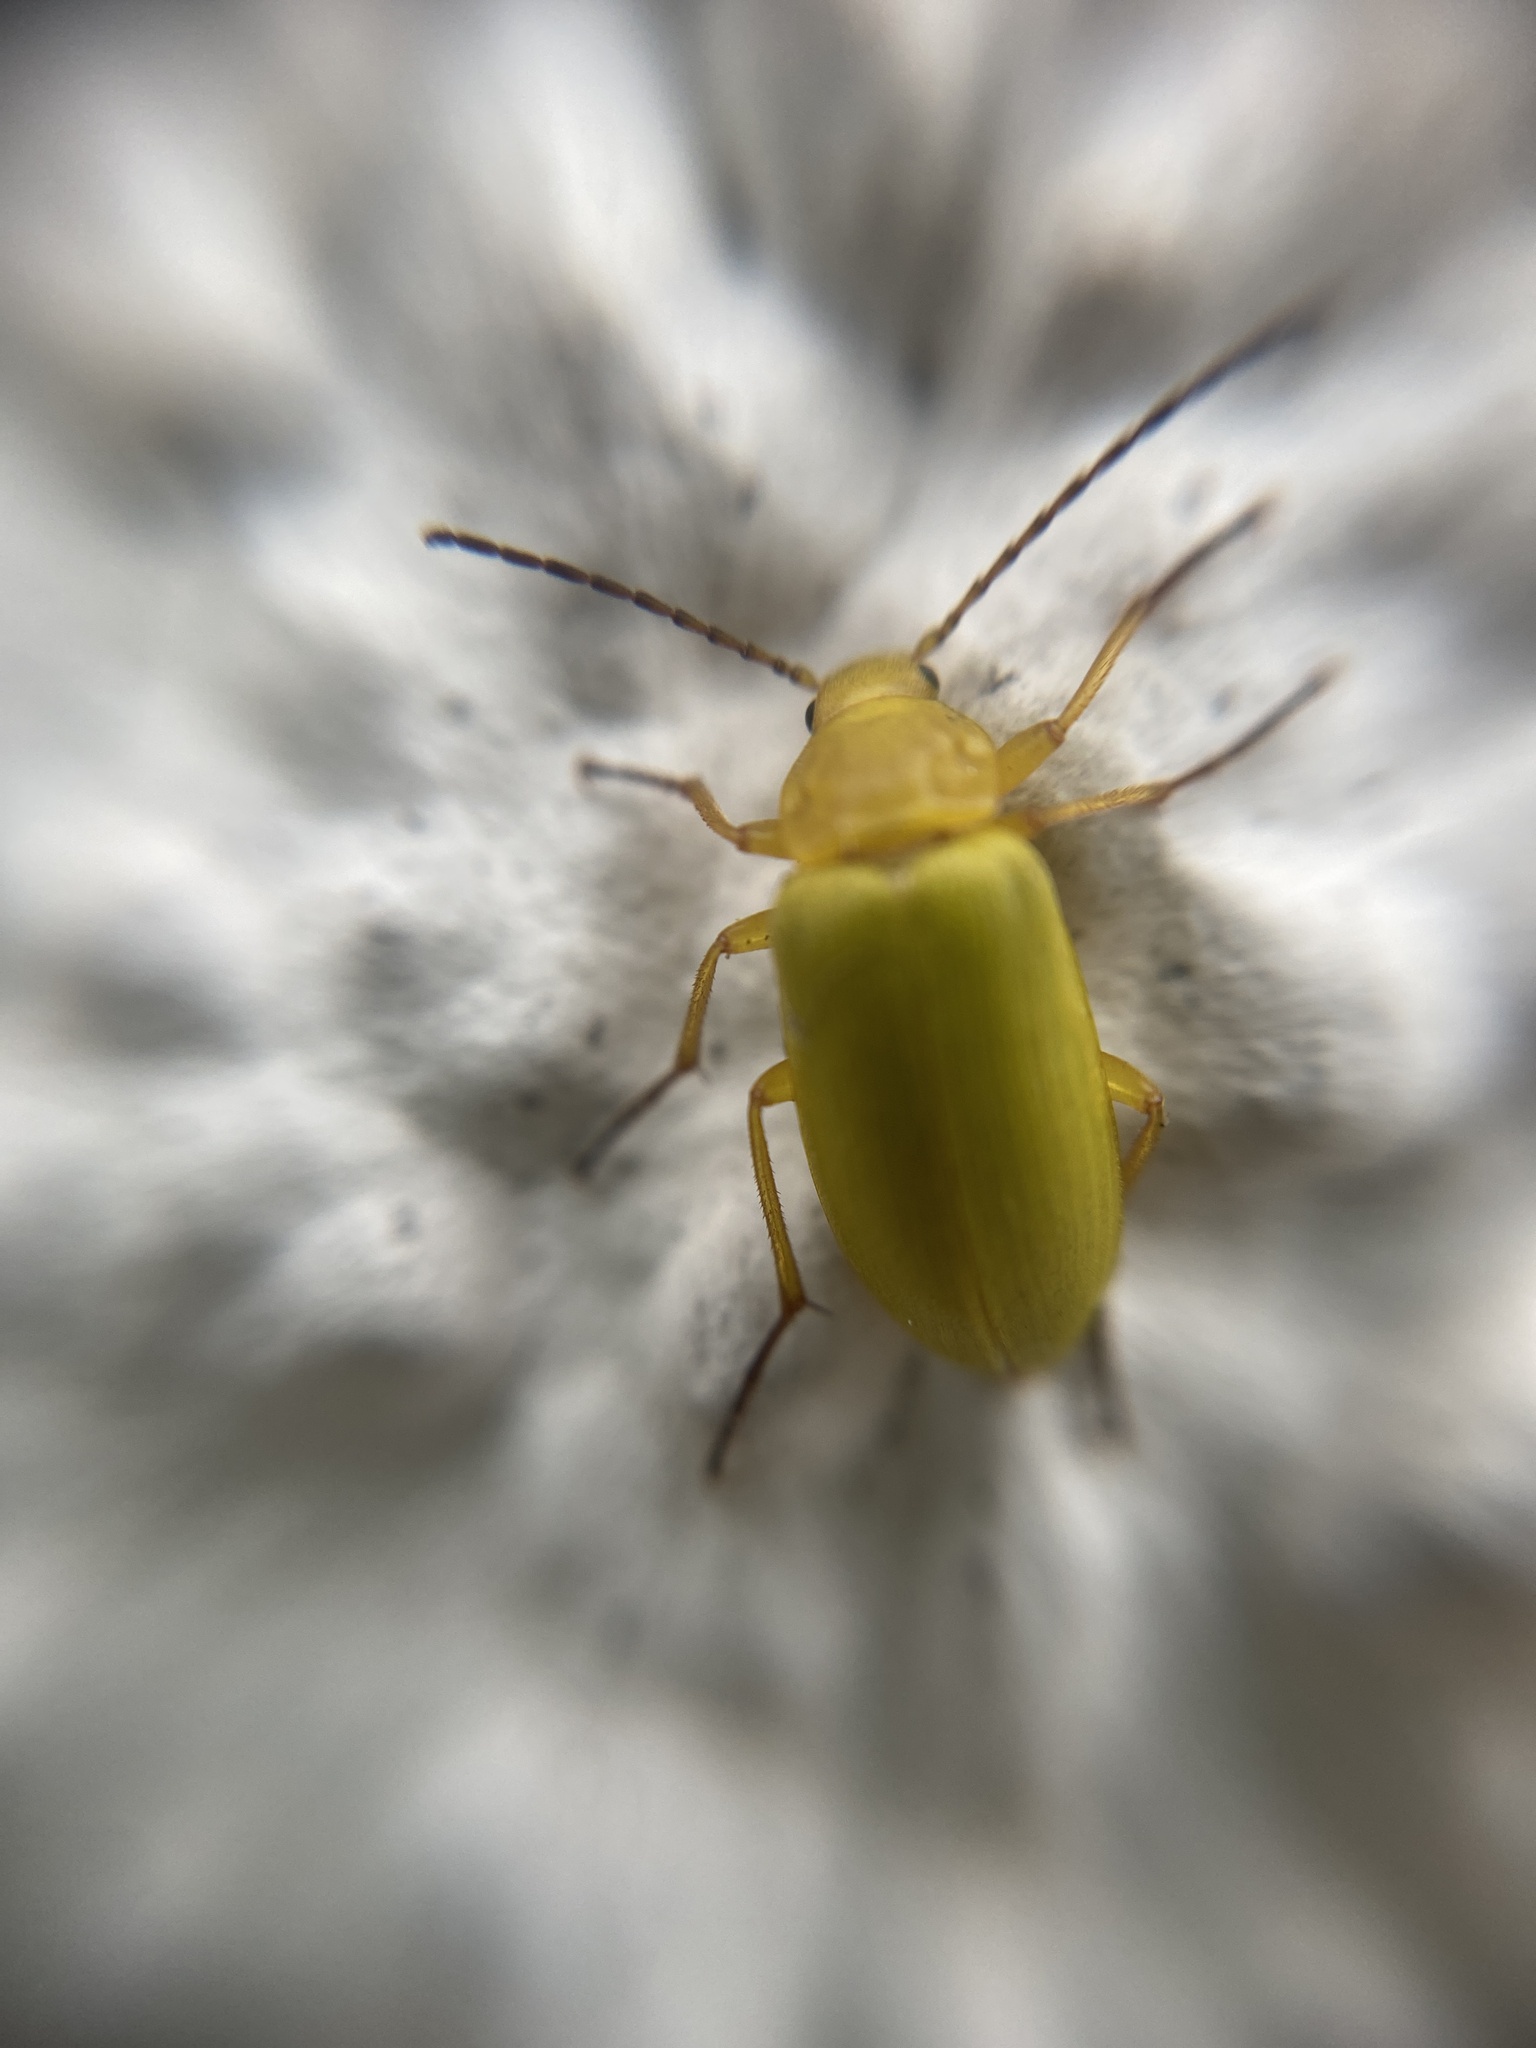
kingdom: Animalia
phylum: Arthropoda
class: Insecta
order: Coleoptera
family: Tenebrionidae
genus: Cteniopus
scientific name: Cteniopus sulphureus
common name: Sulphur beetle
